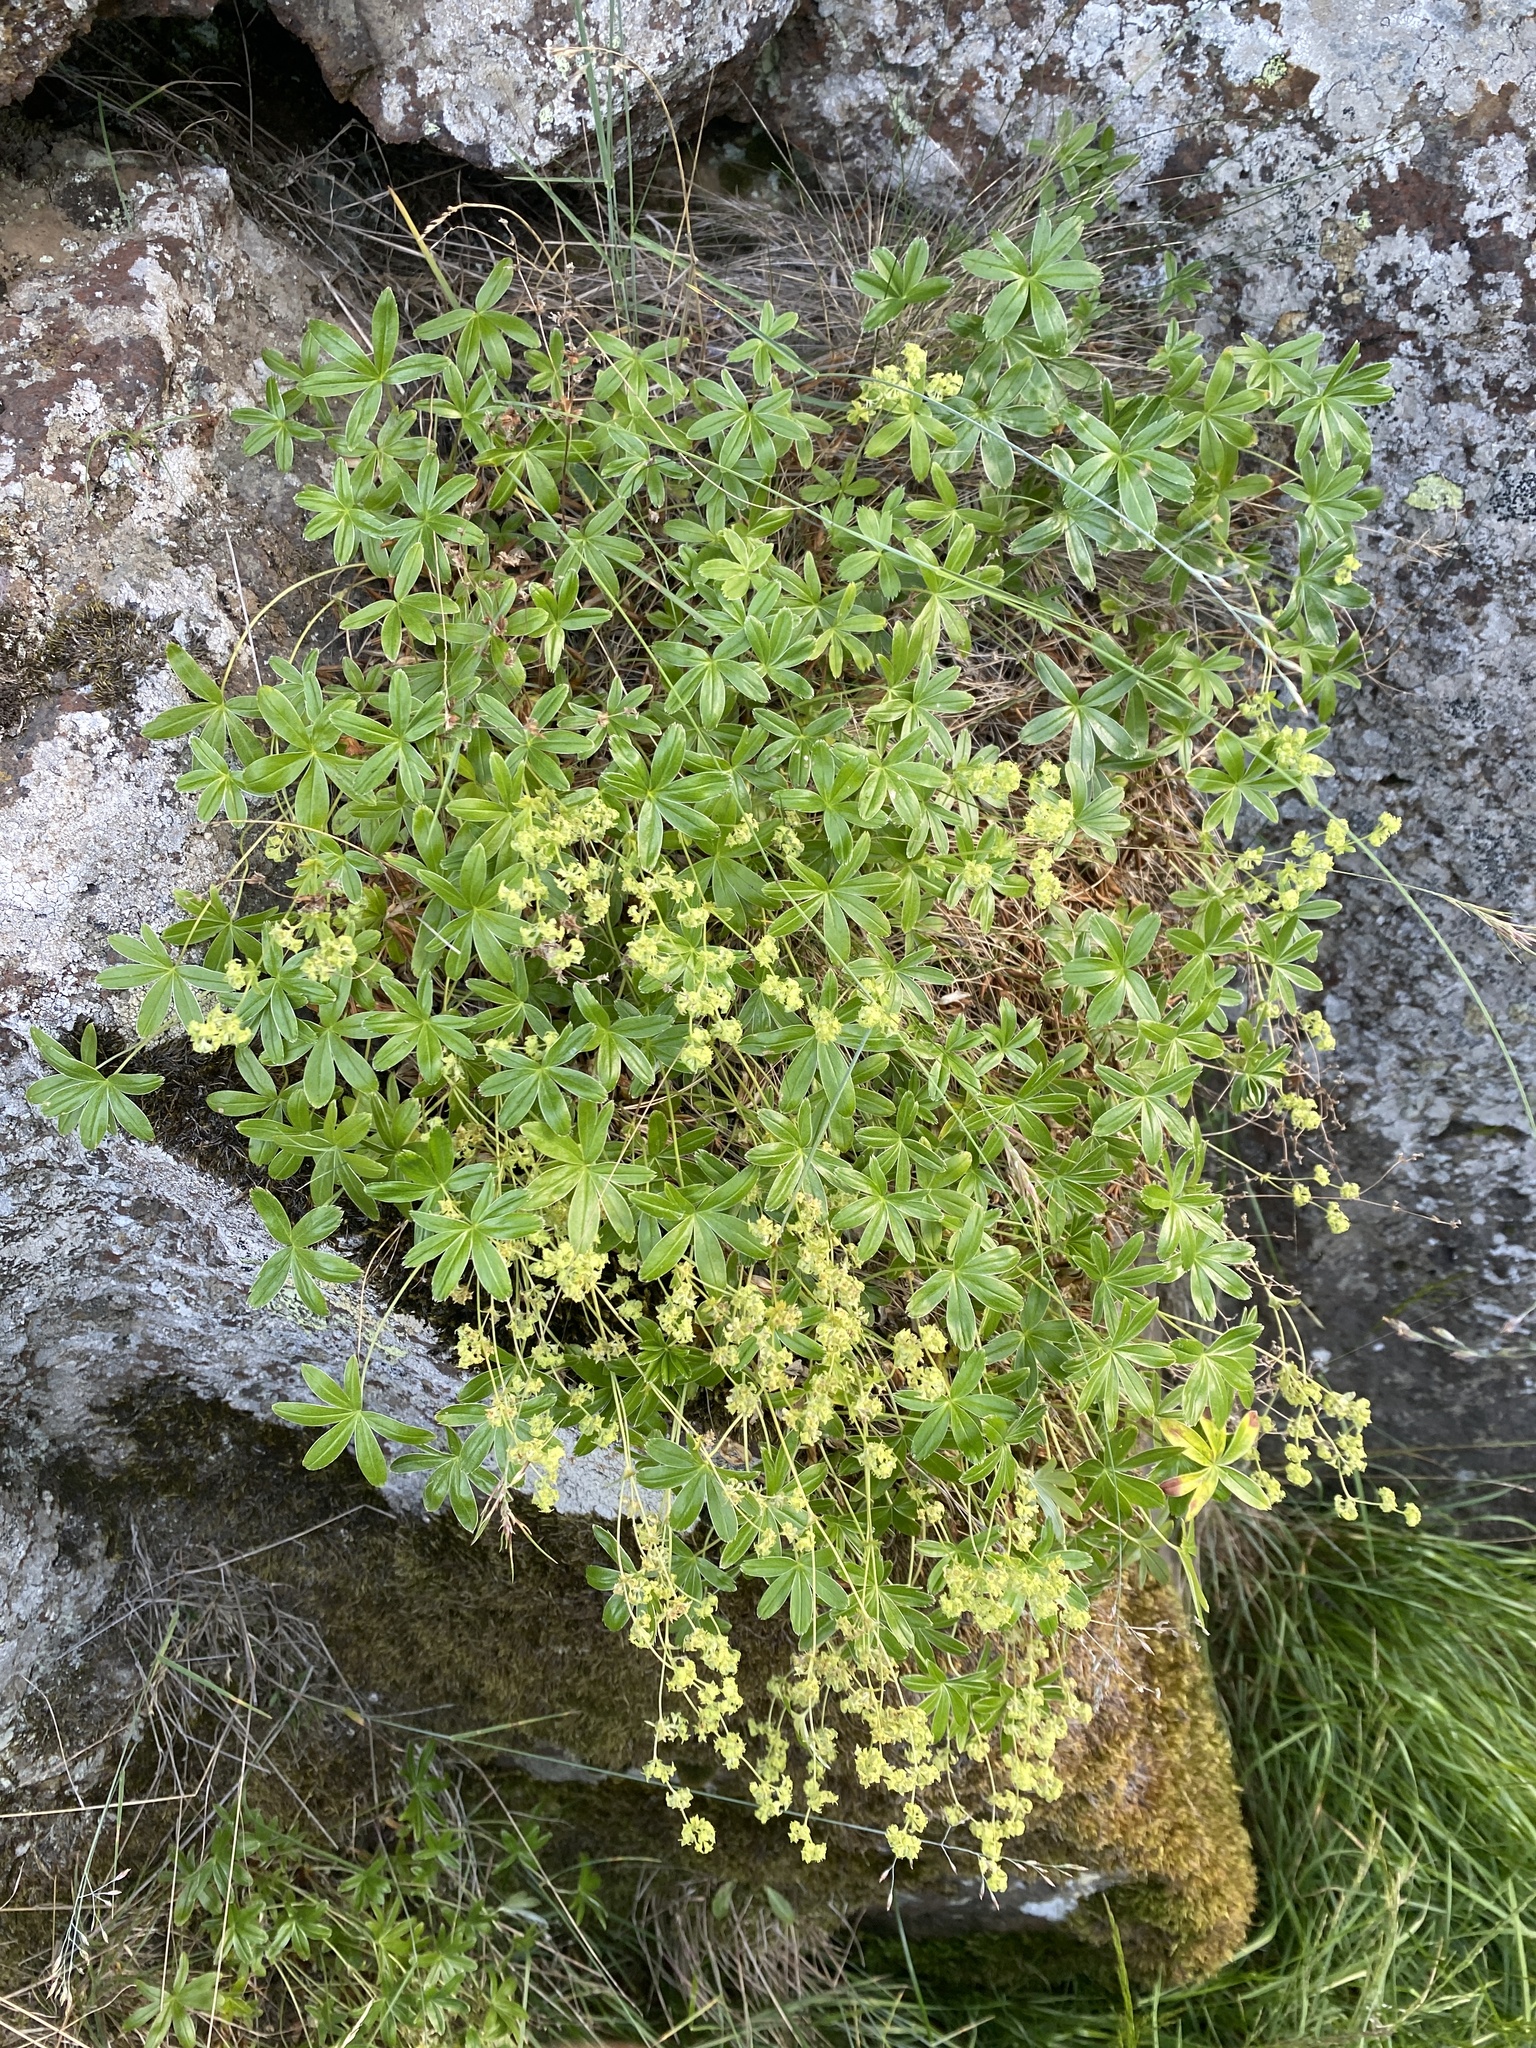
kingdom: Plantae
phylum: Tracheophyta
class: Magnoliopsida
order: Rosales
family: Rosaceae
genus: Alchemilla
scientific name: Alchemilla alpina
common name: Alpine lady's-mantle
